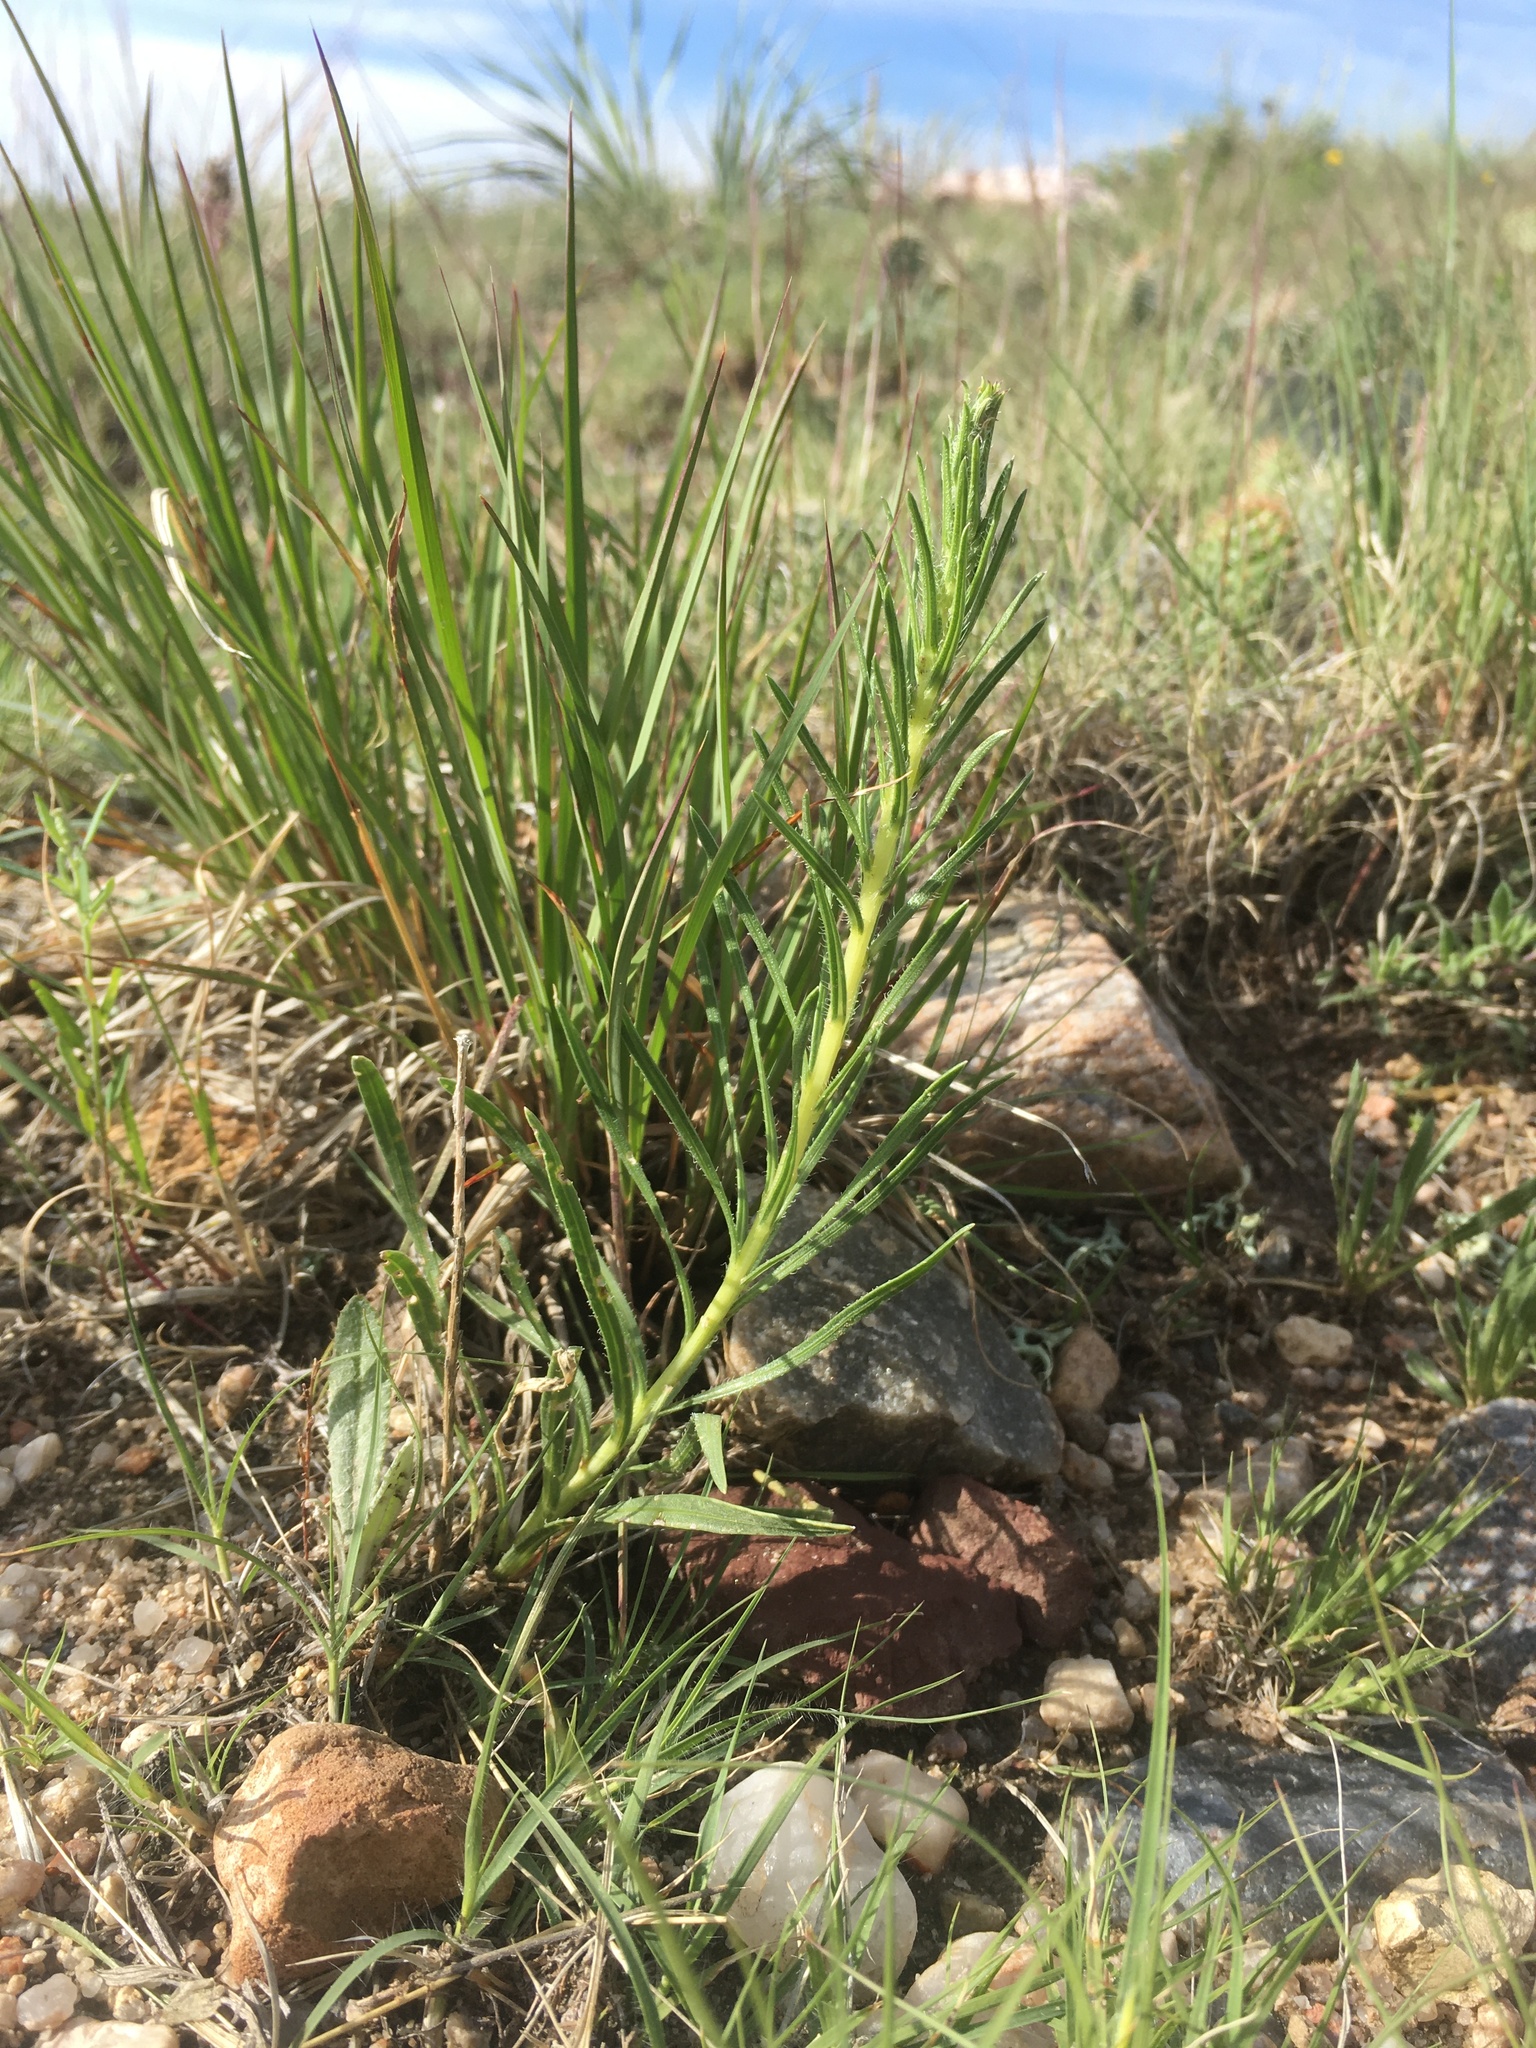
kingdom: Plantae
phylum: Tracheophyta
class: Magnoliopsida
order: Asterales
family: Asteraceae
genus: Liatris
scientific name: Liatris punctata
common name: Dotted gayfeather
